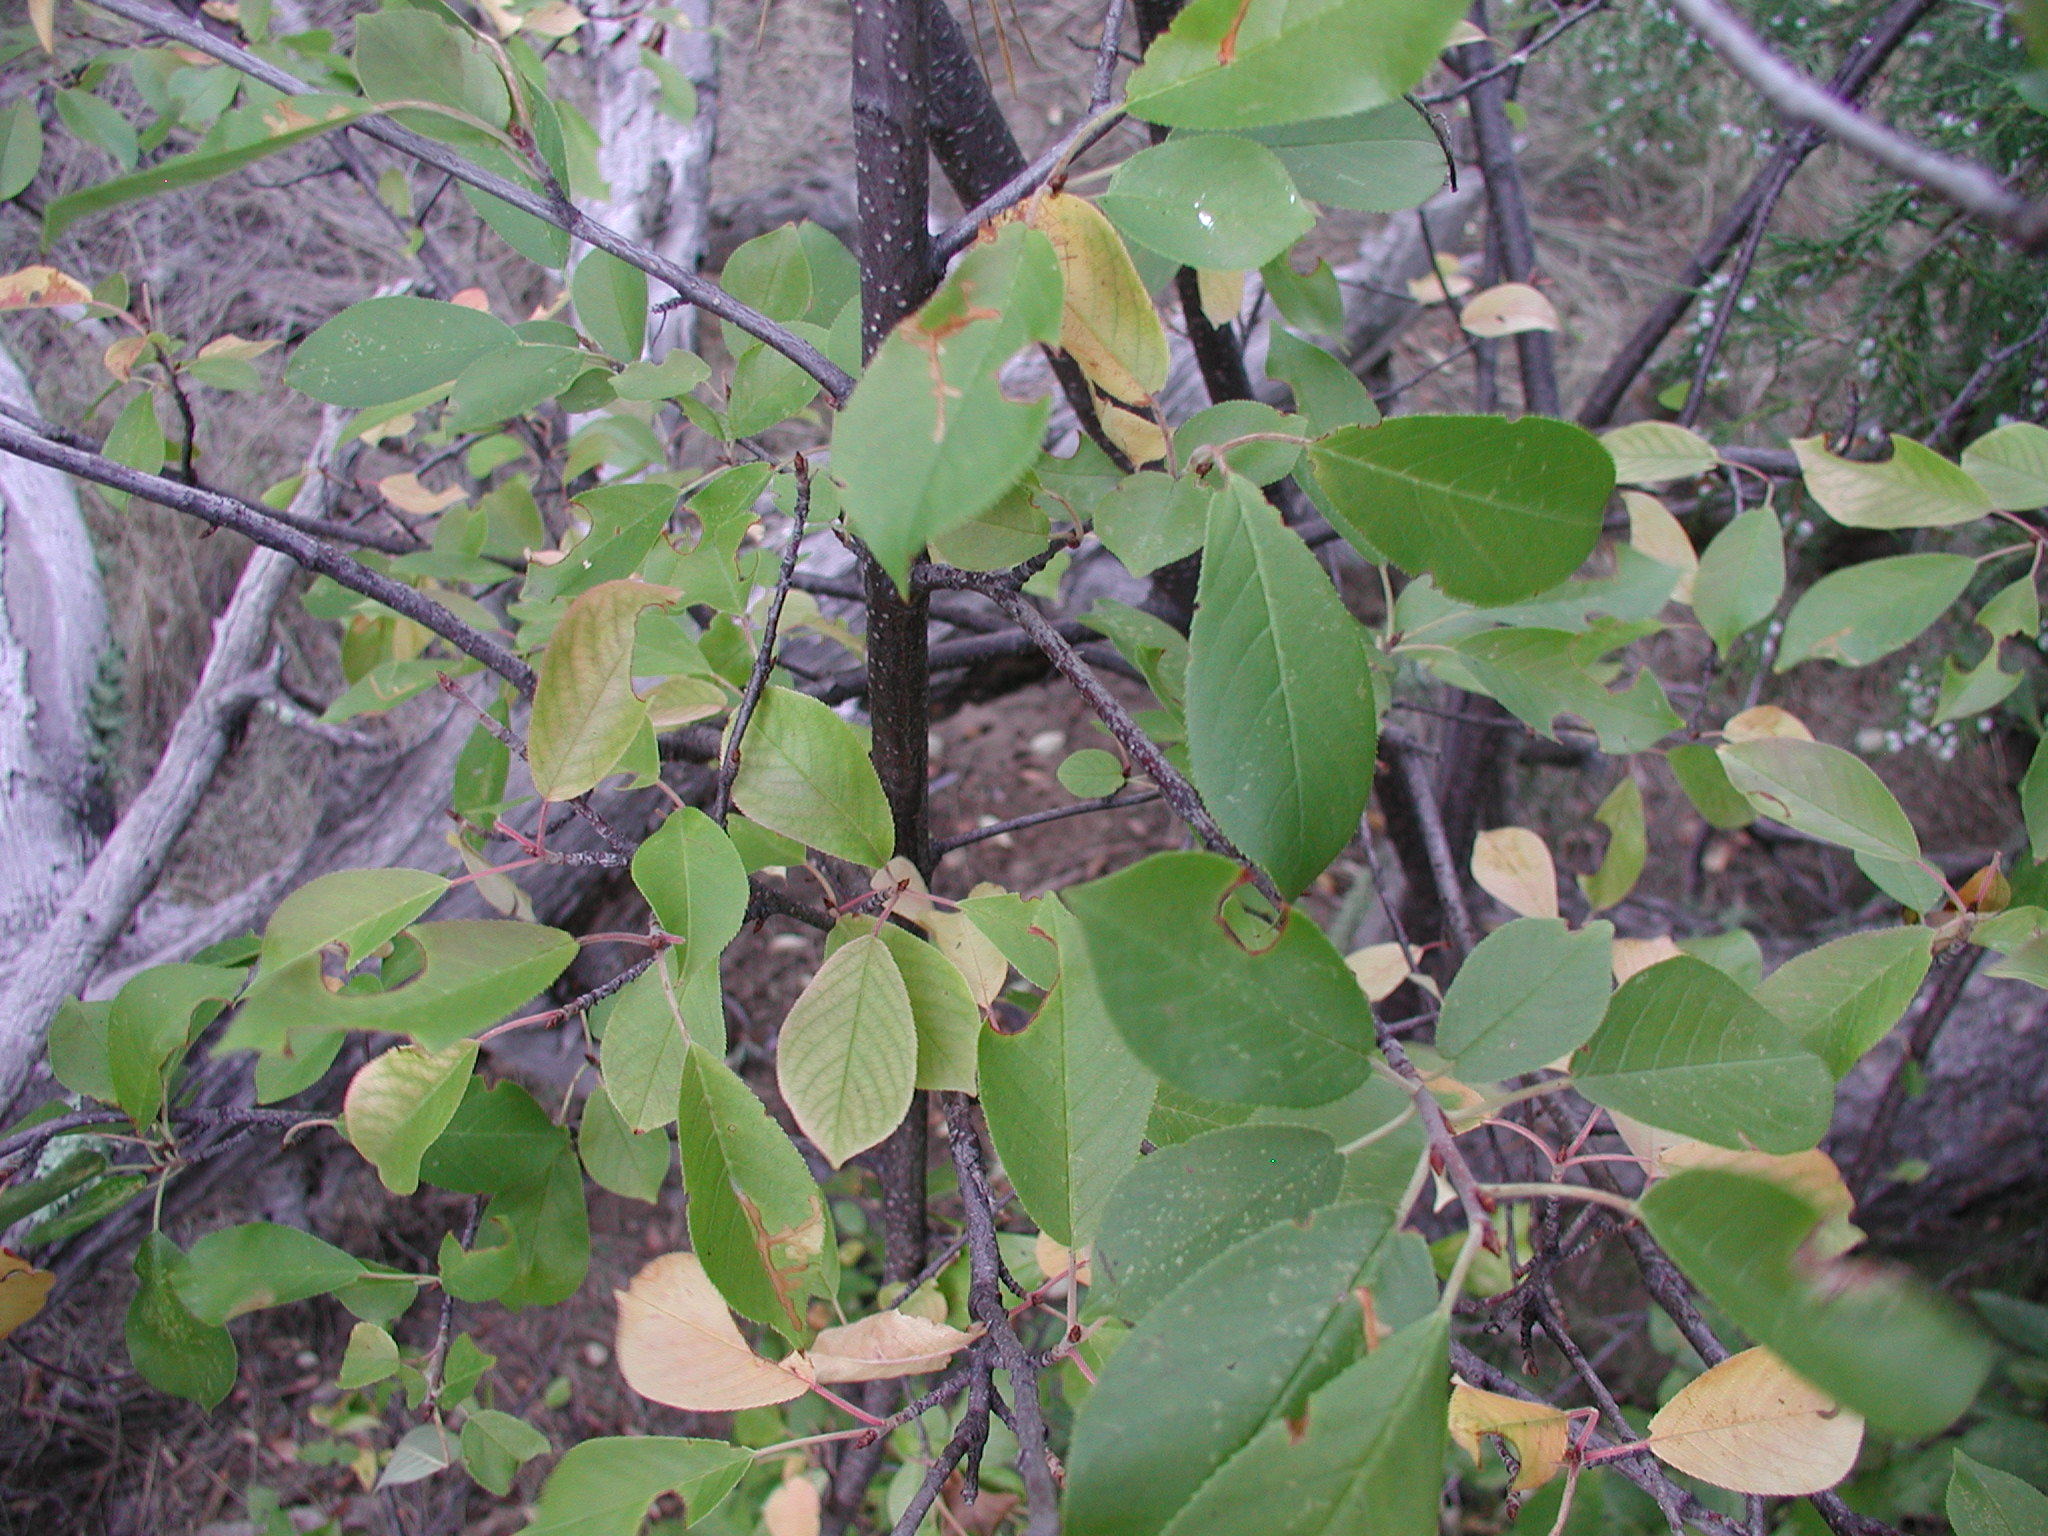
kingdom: Plantae
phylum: Tracheophyta
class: Magnoliopsida
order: Rosales
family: Rosaceae
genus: Prunus
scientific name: Prunus virginiana
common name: Chokecherry
